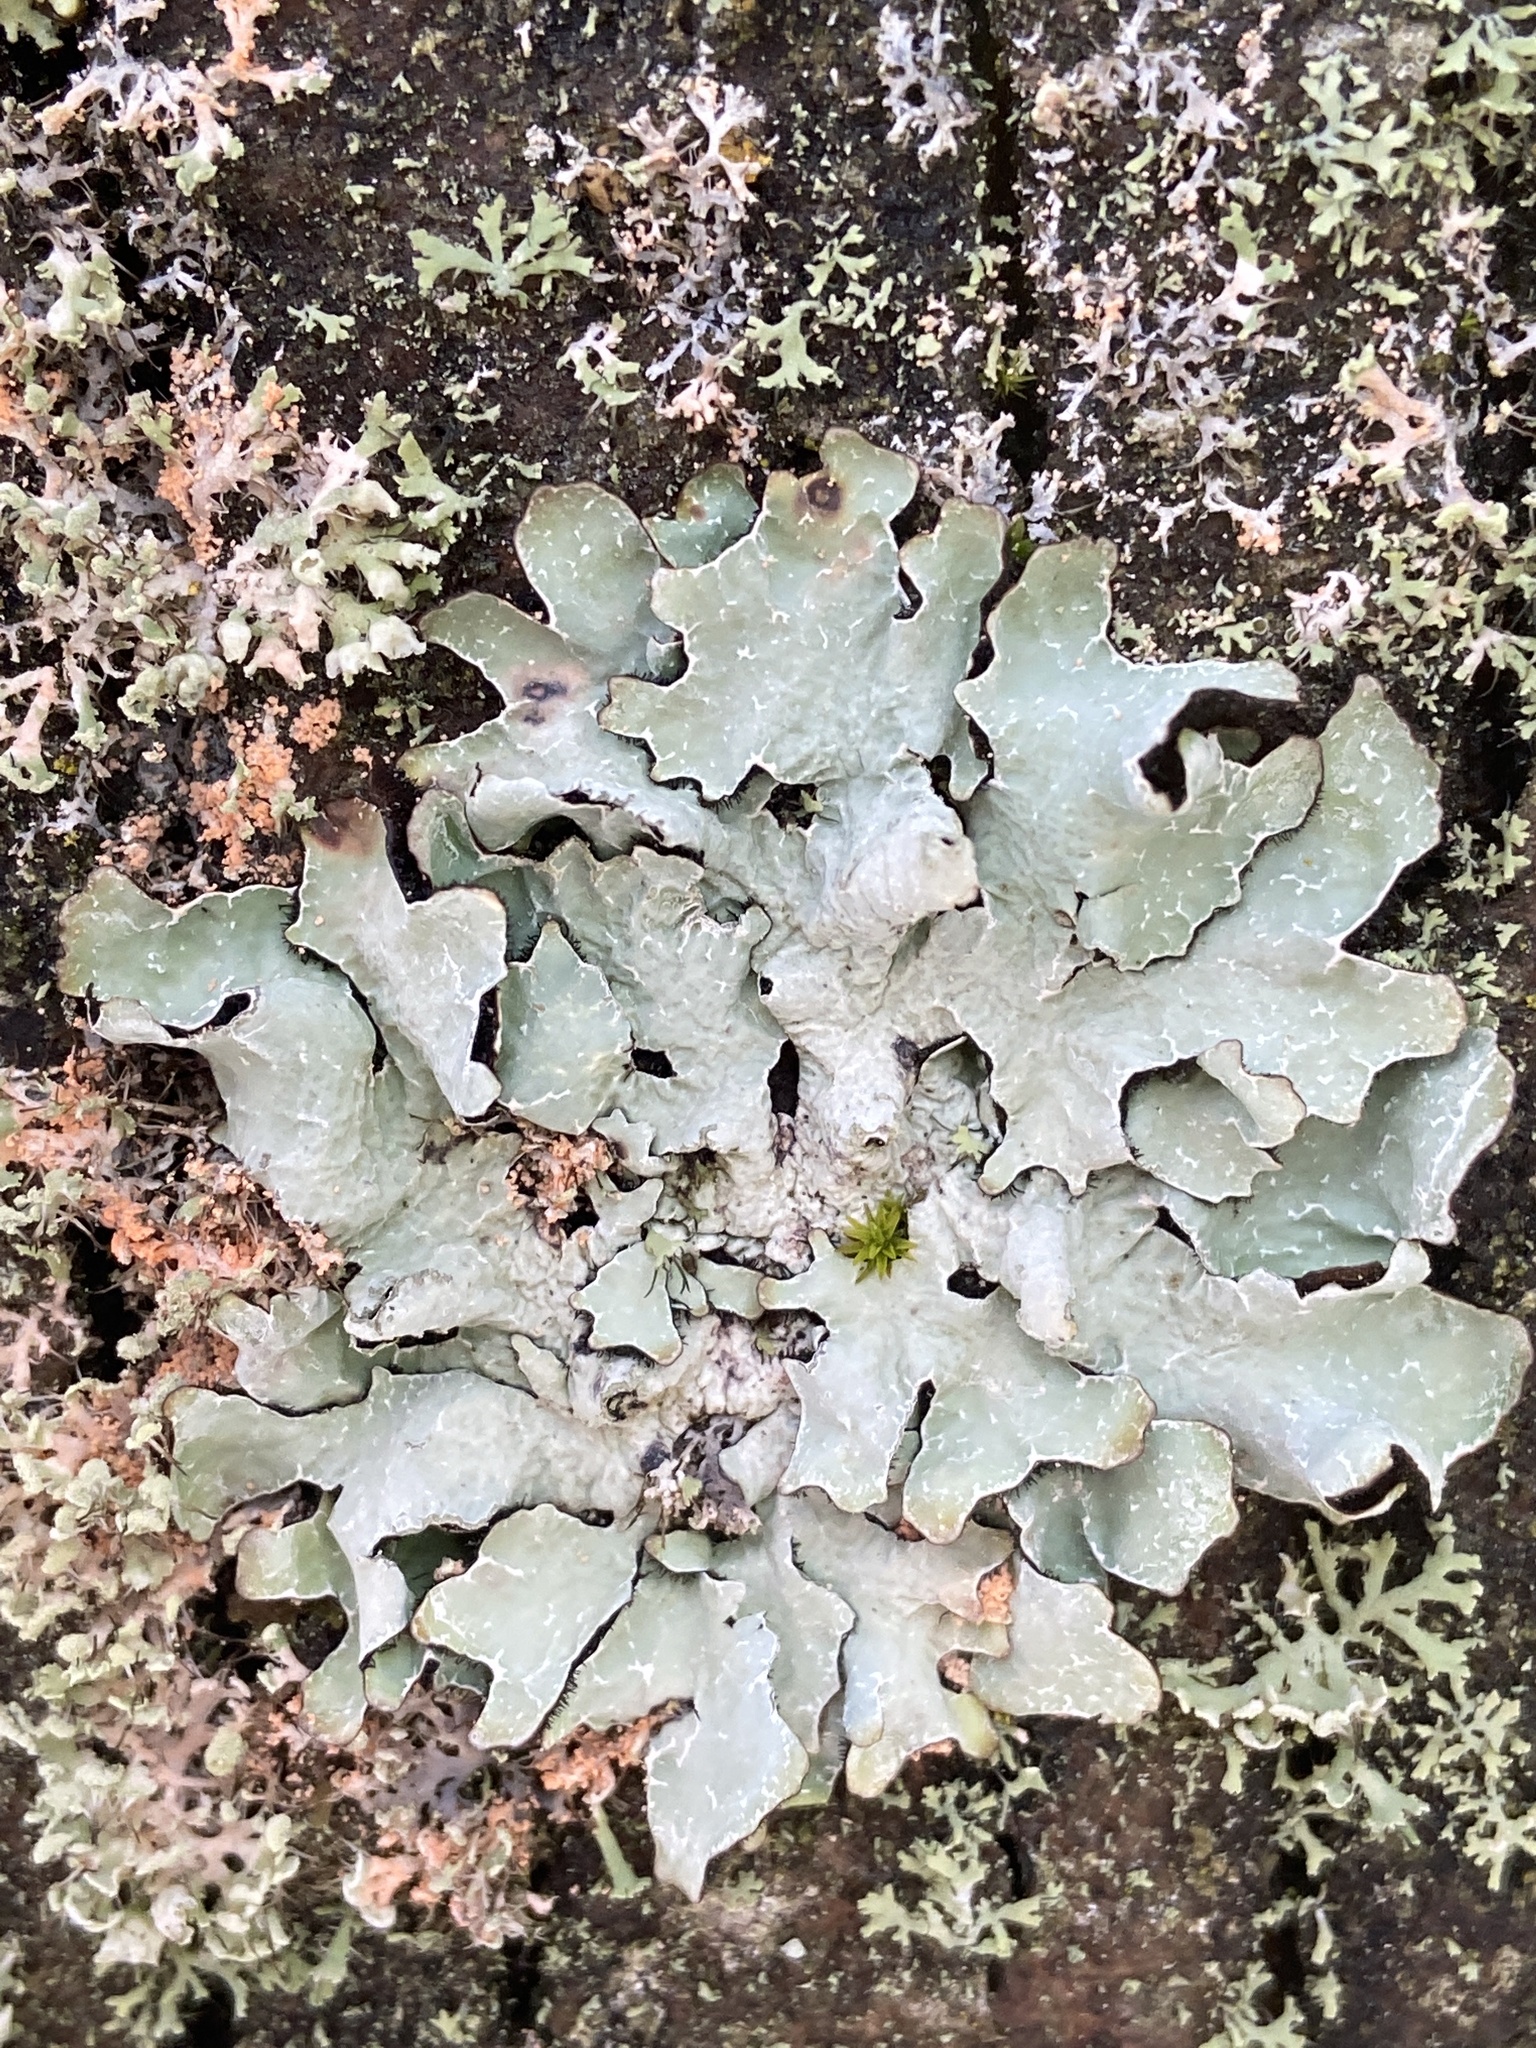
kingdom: Fungi
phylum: Basidiomycota
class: Agaricomycetes
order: Corticiales
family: Corticiaceae
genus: Erythricium
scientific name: Erythricium aurantiacum
